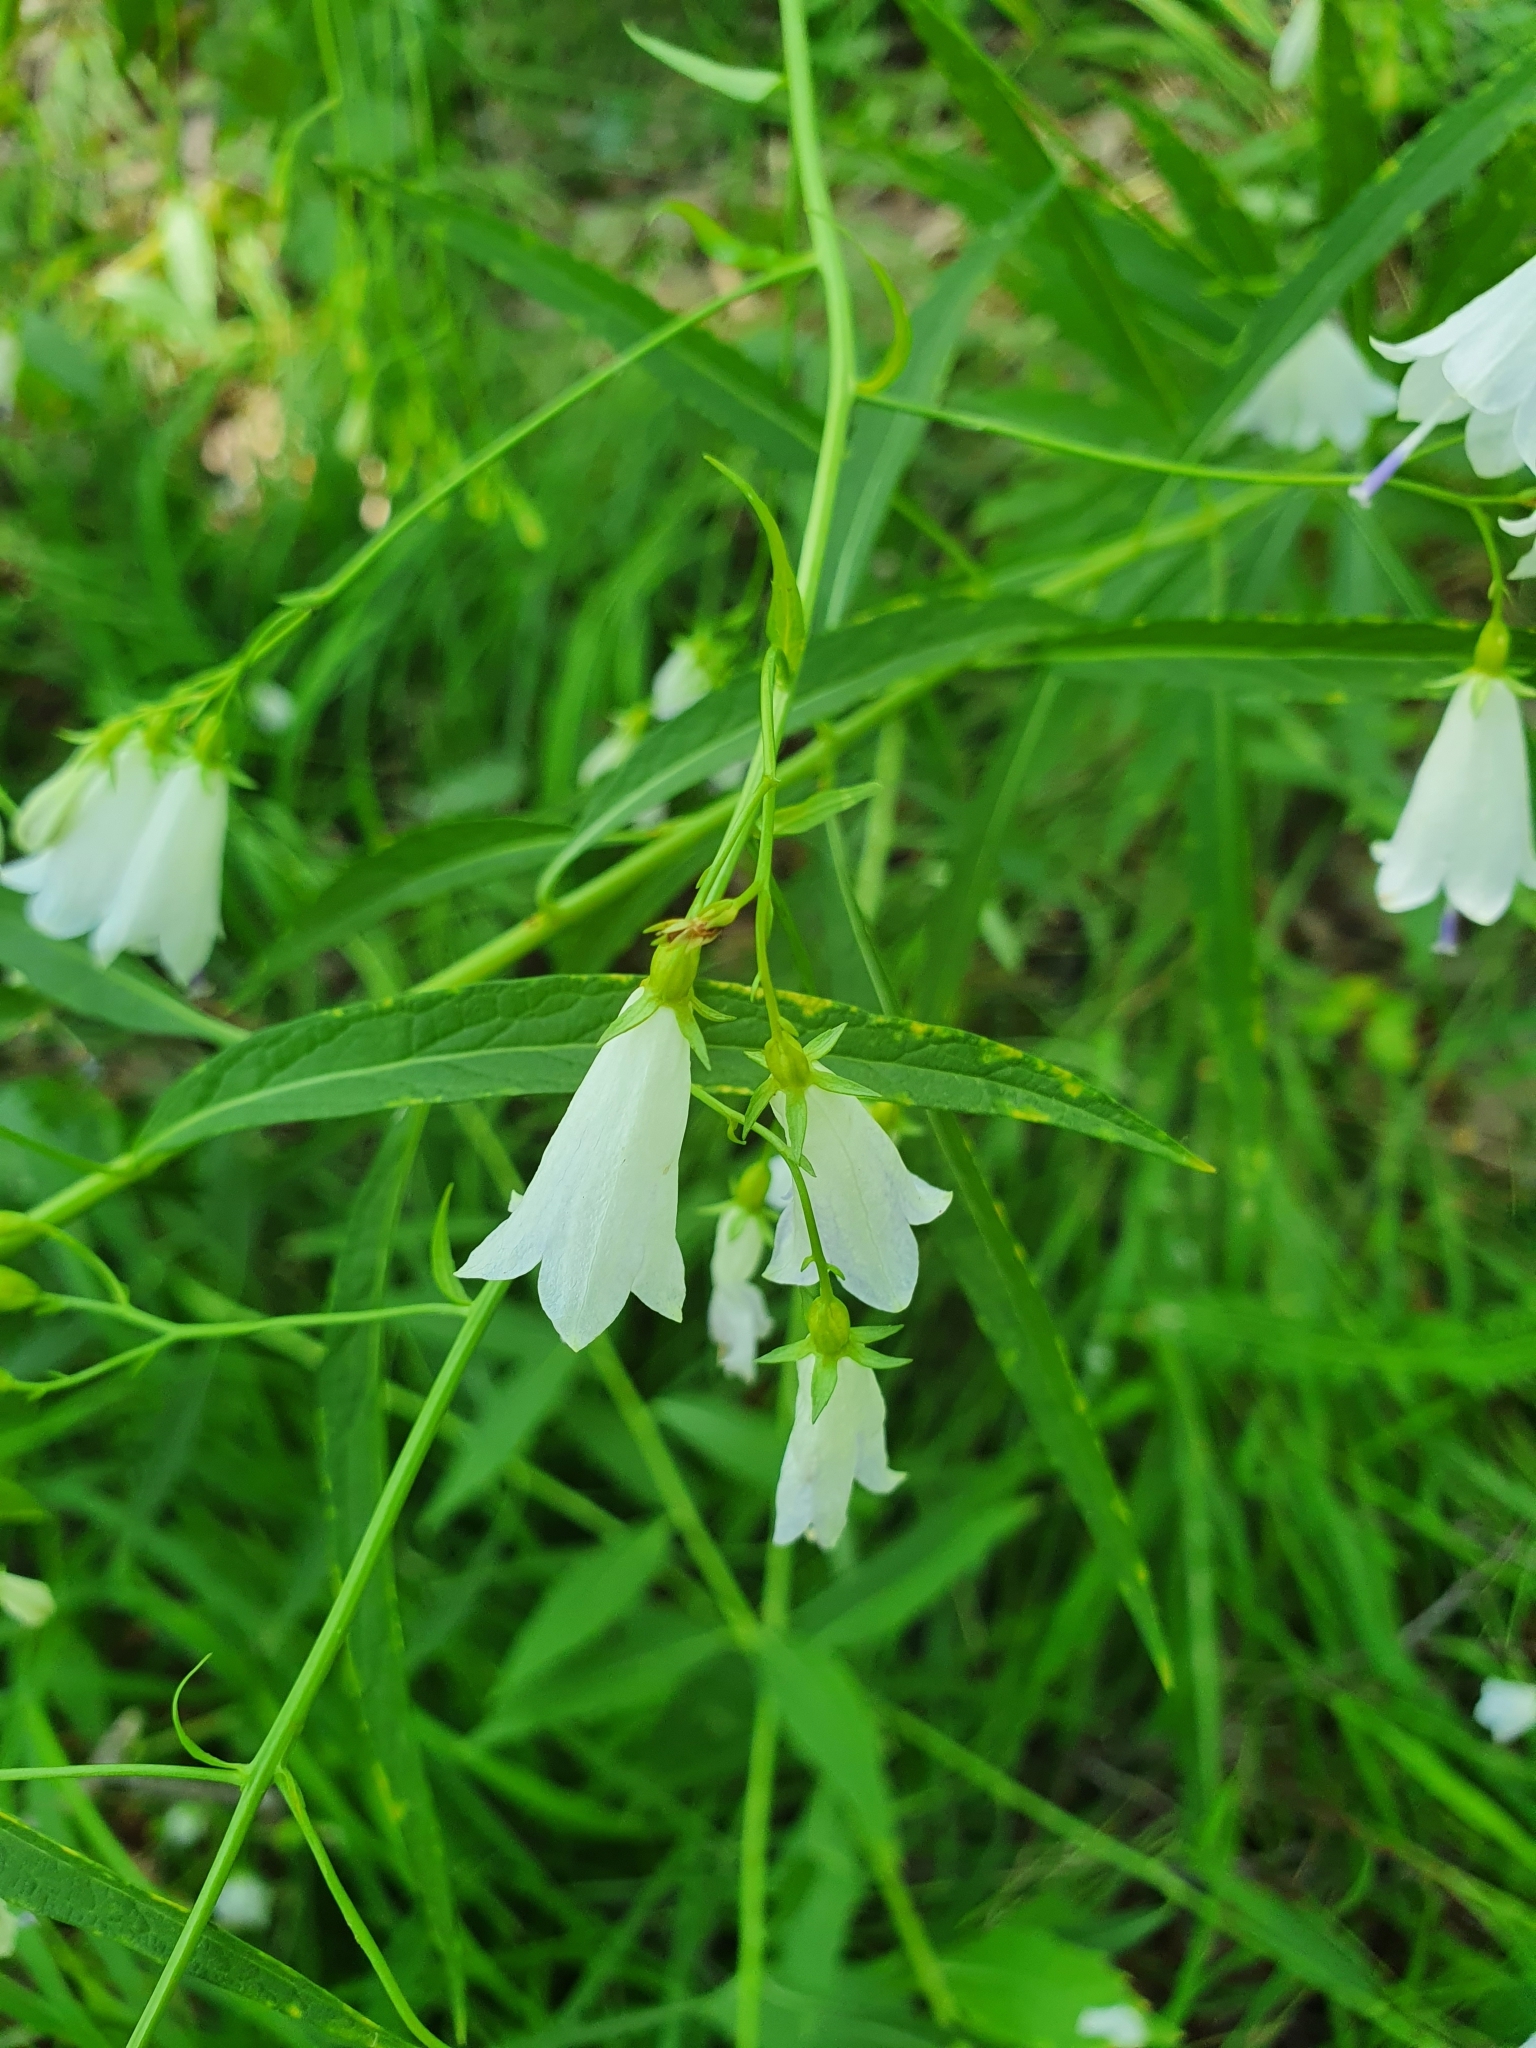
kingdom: Plantae
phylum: Tracheophyta
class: Magnoliopsida
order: Asterales
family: Campanulaceae
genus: Adenophora
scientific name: Adenophora liliifolia
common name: Lilyleaf ladybells
